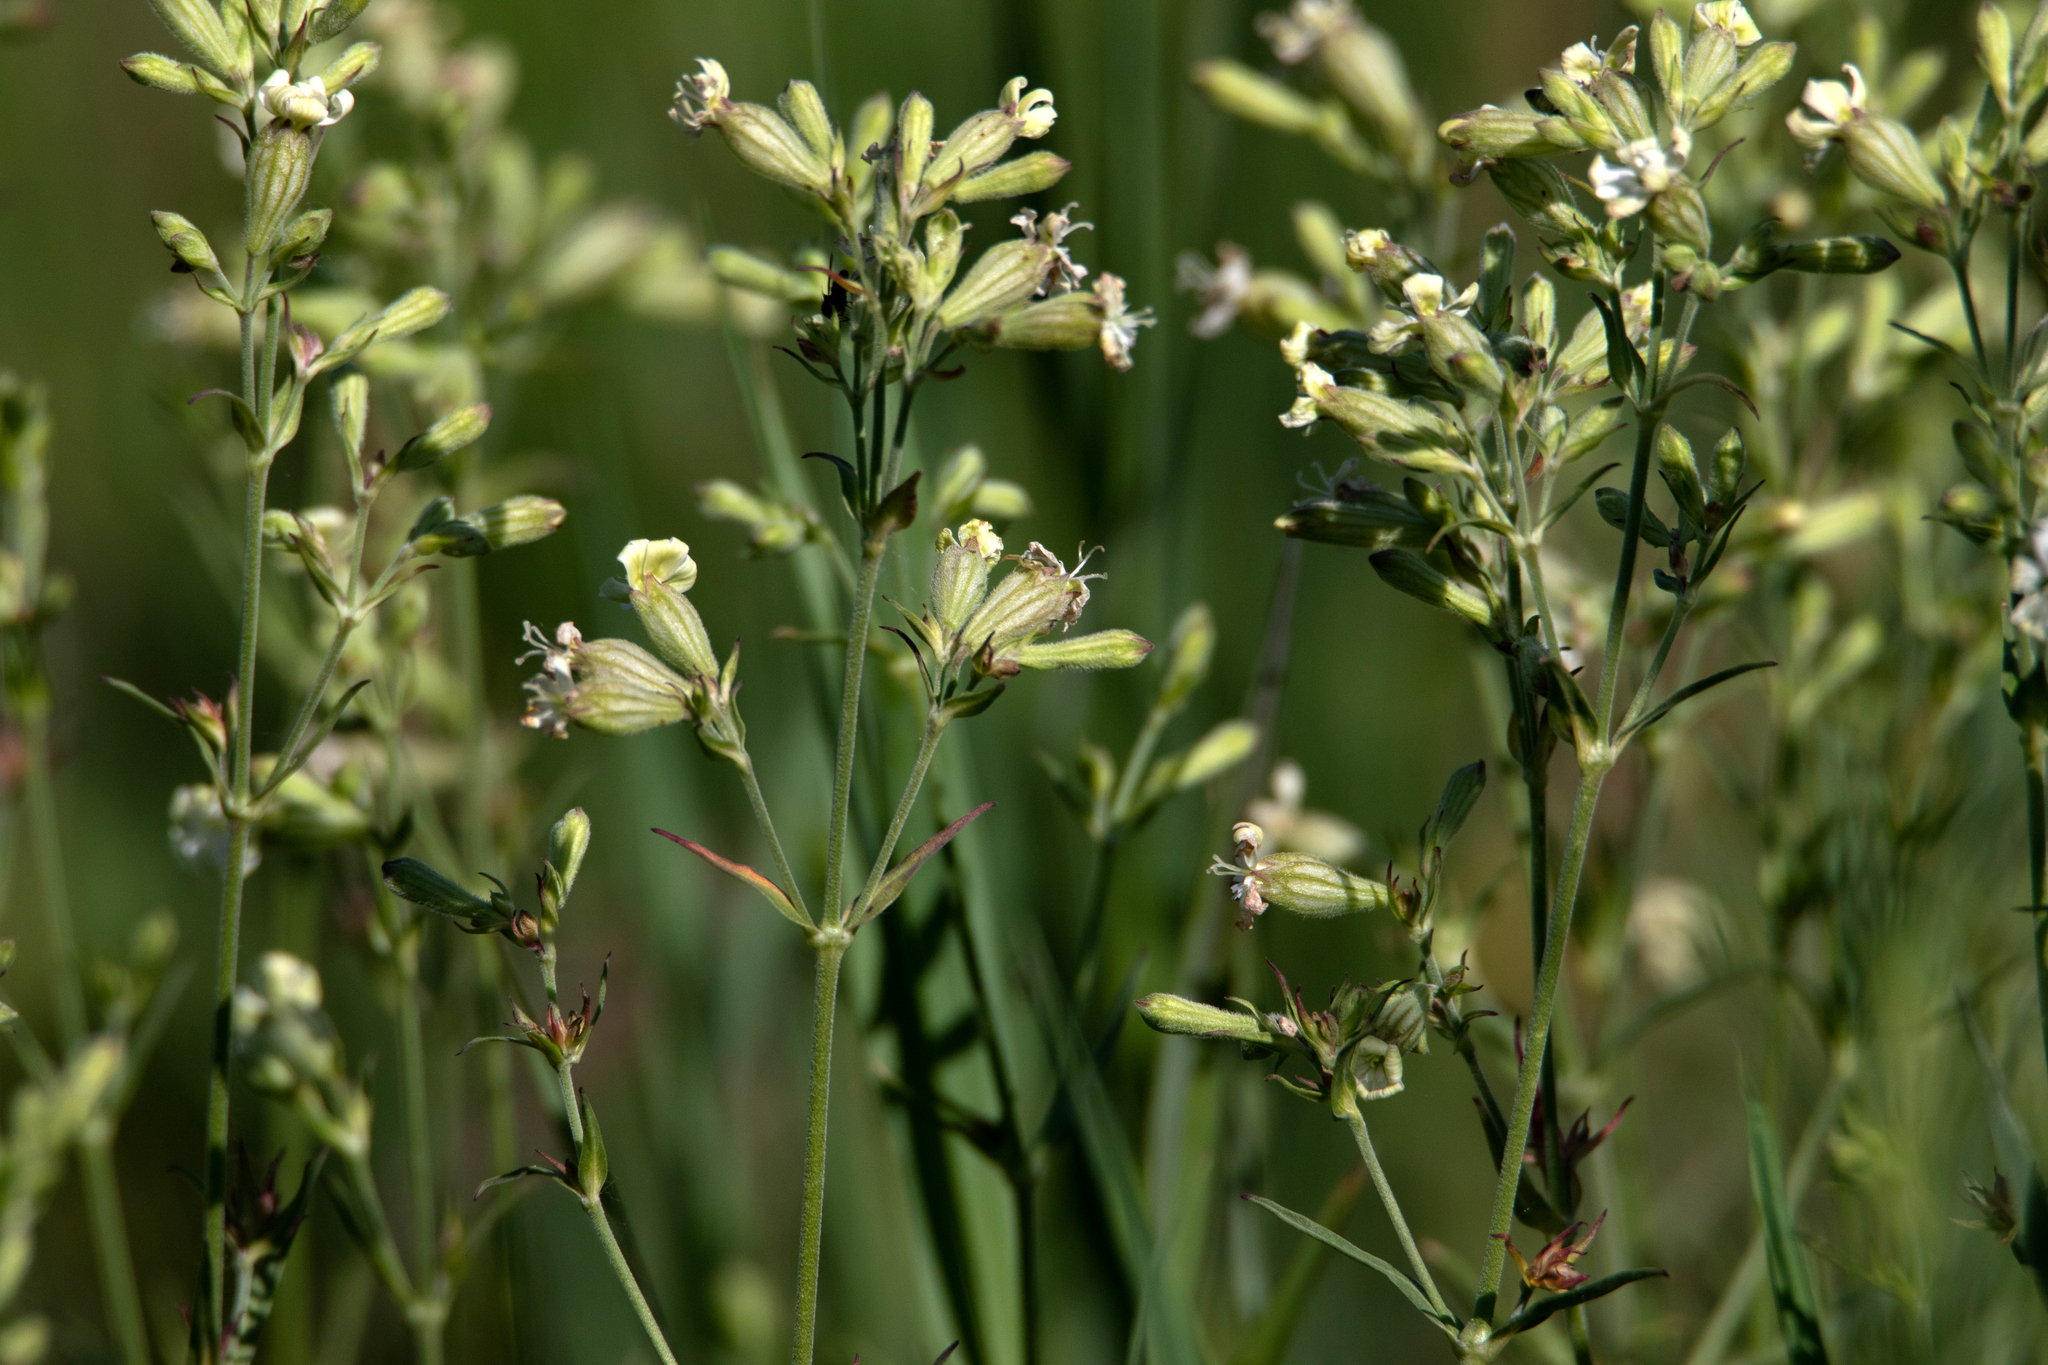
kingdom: Plantae
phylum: Tracheophyta
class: Magnoliopsida
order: Caryophyllales
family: Caryophyllaceae
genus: Silene
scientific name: Silene amoena
